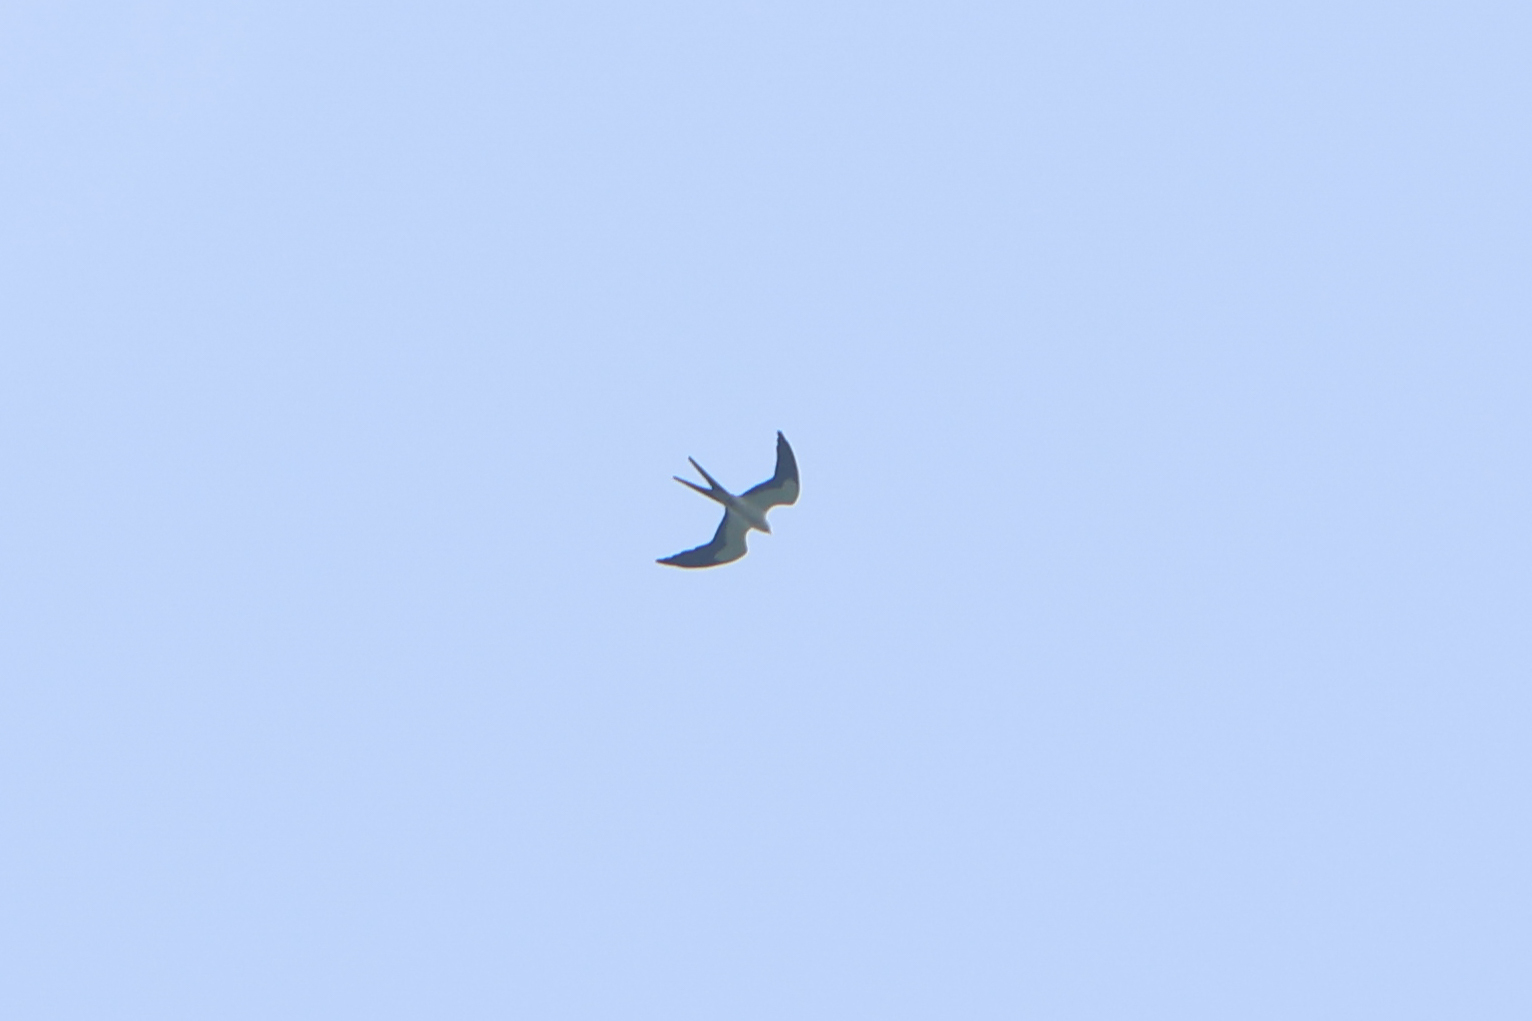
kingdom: Animalia
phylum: Chordata
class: Aves
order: Accipitriformes
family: Accipitridae
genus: Elanoides
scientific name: Elanoides forficatus
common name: Swallow-tailed kite
